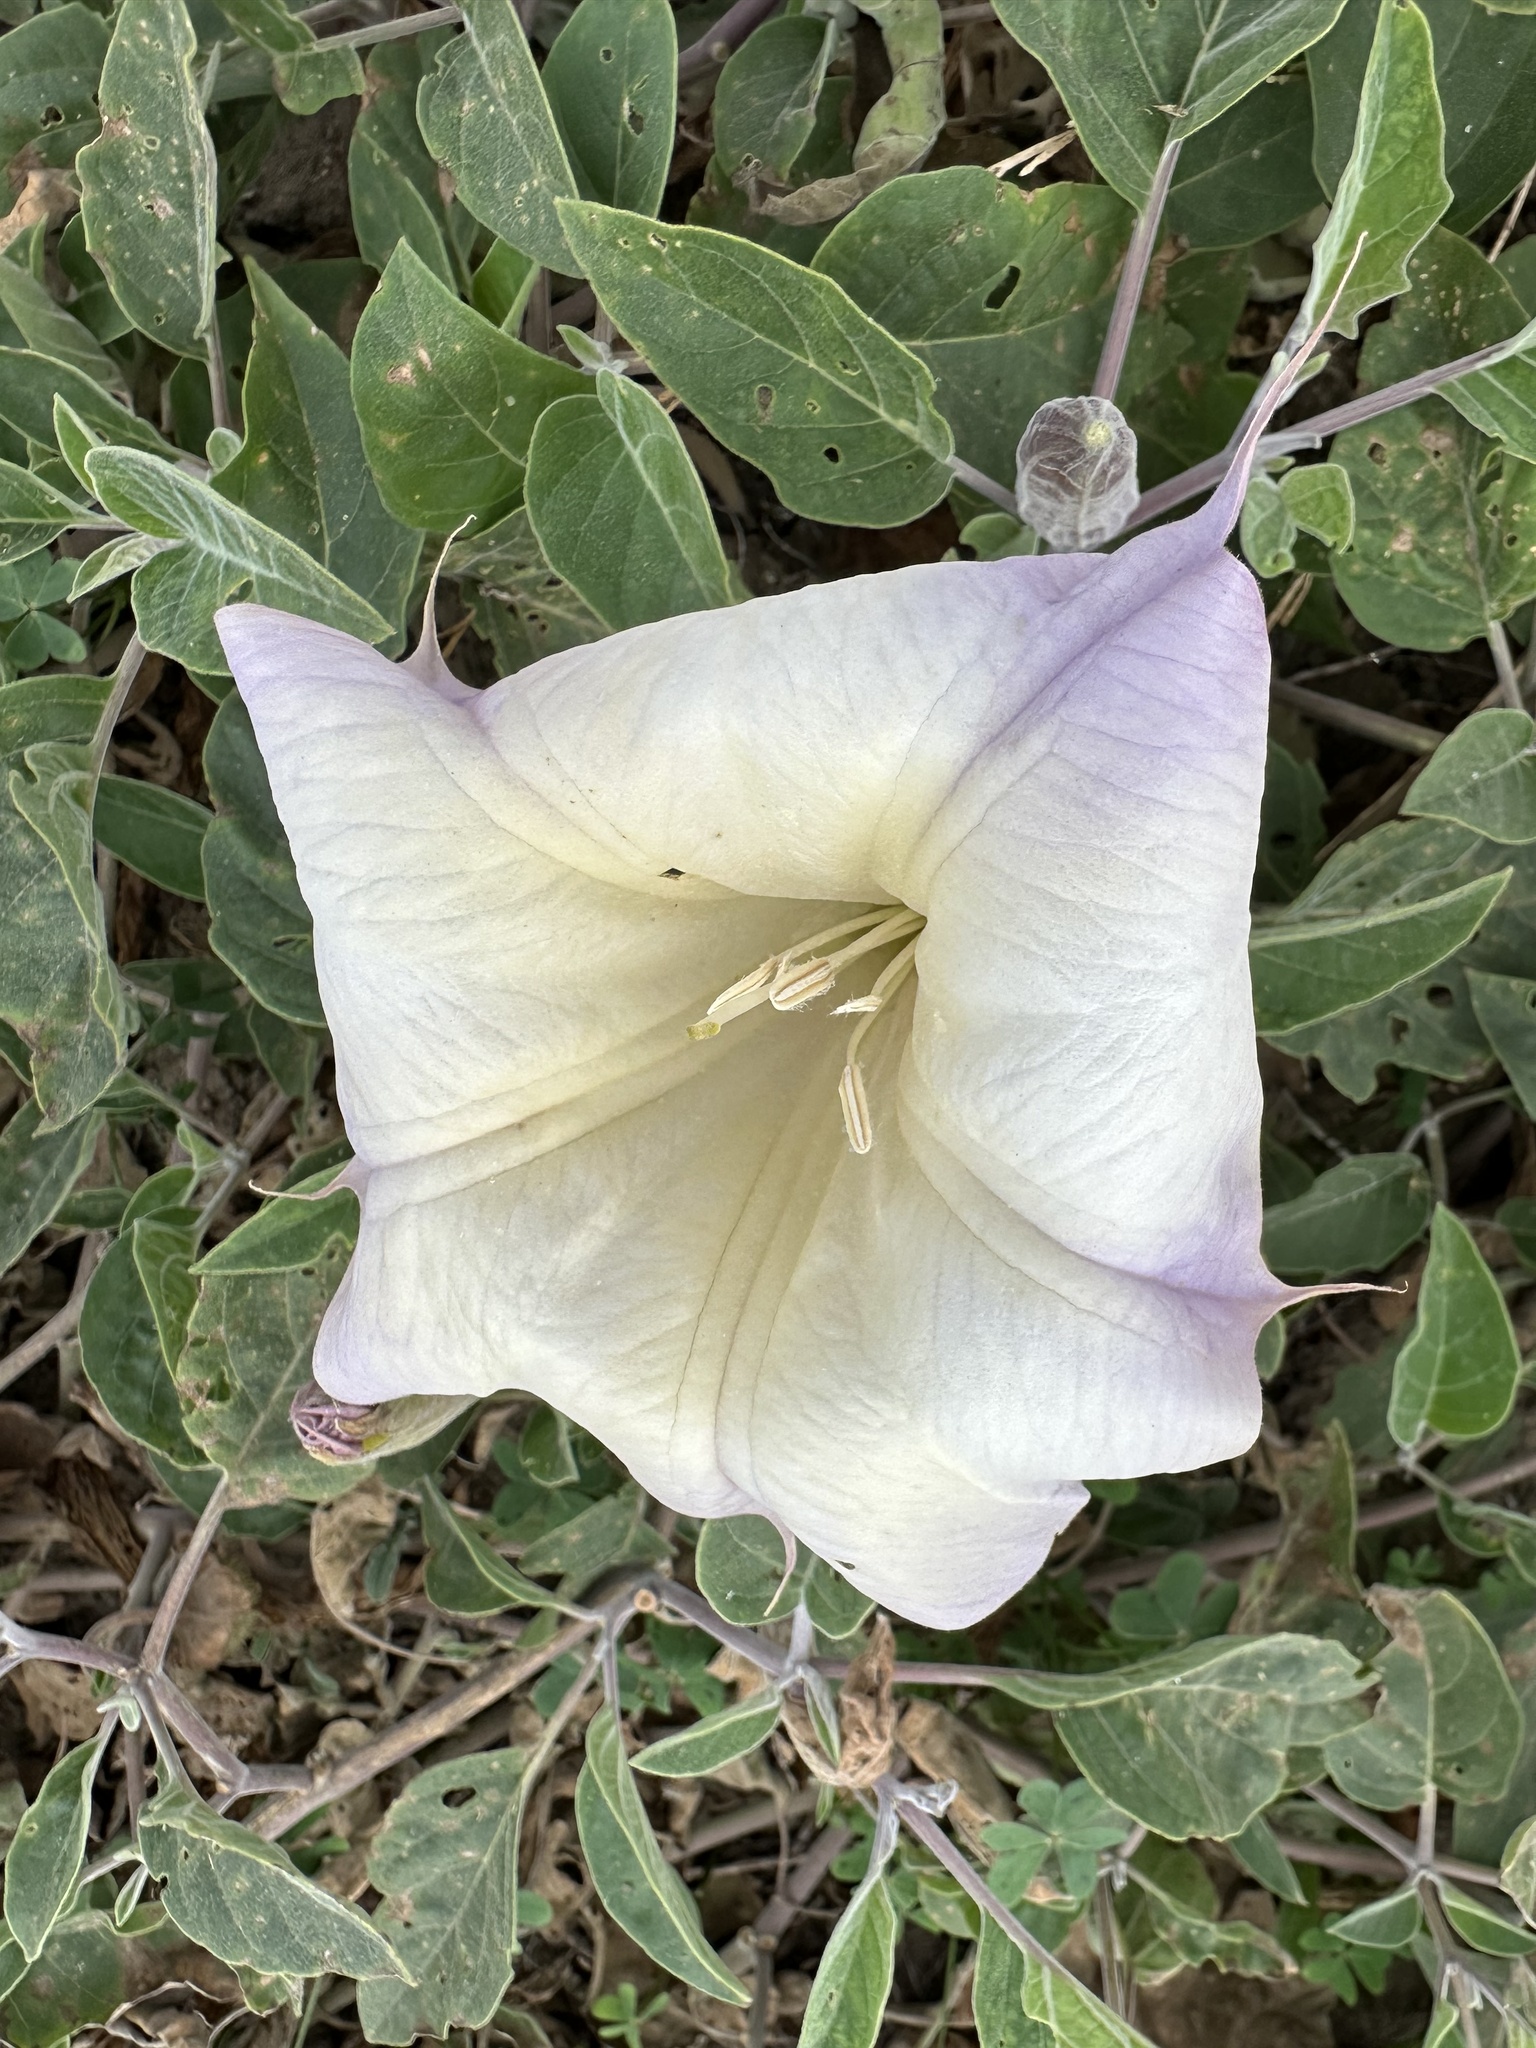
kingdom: Plantae
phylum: Tracheophyta
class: Magnoliopsida
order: Solanales
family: Solanaceae
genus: Datura
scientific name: Datura wrightii
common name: Sacred thorn-apple
